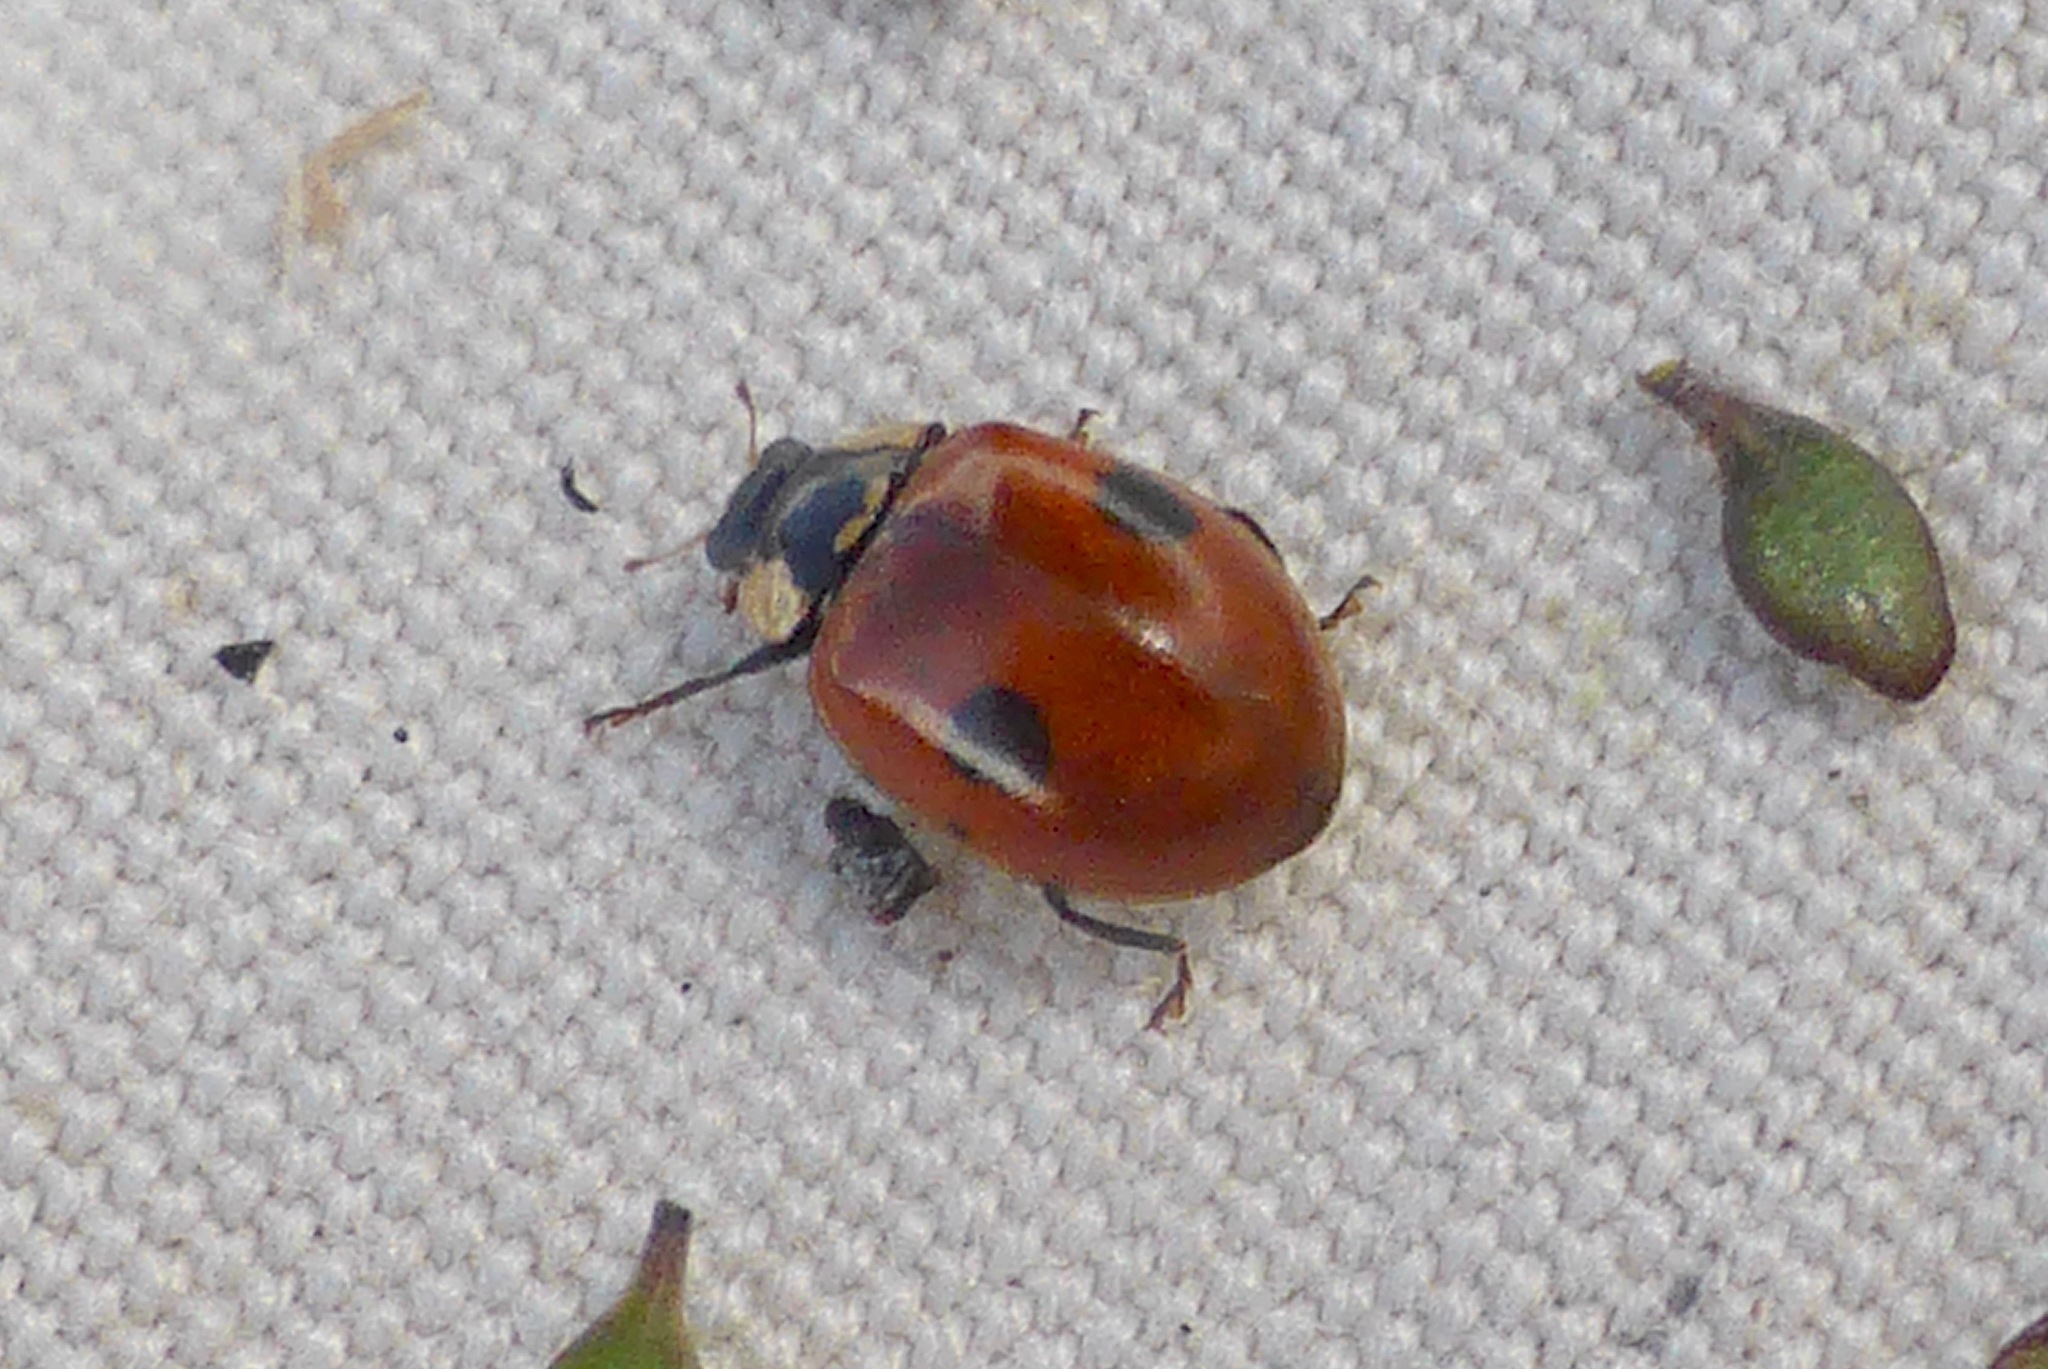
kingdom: Animalia
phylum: Arthropoda
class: Insecta
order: Coleoptera
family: Coccinellidae
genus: Adalia
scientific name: Adalia bipunctata
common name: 2-spot ladybird
